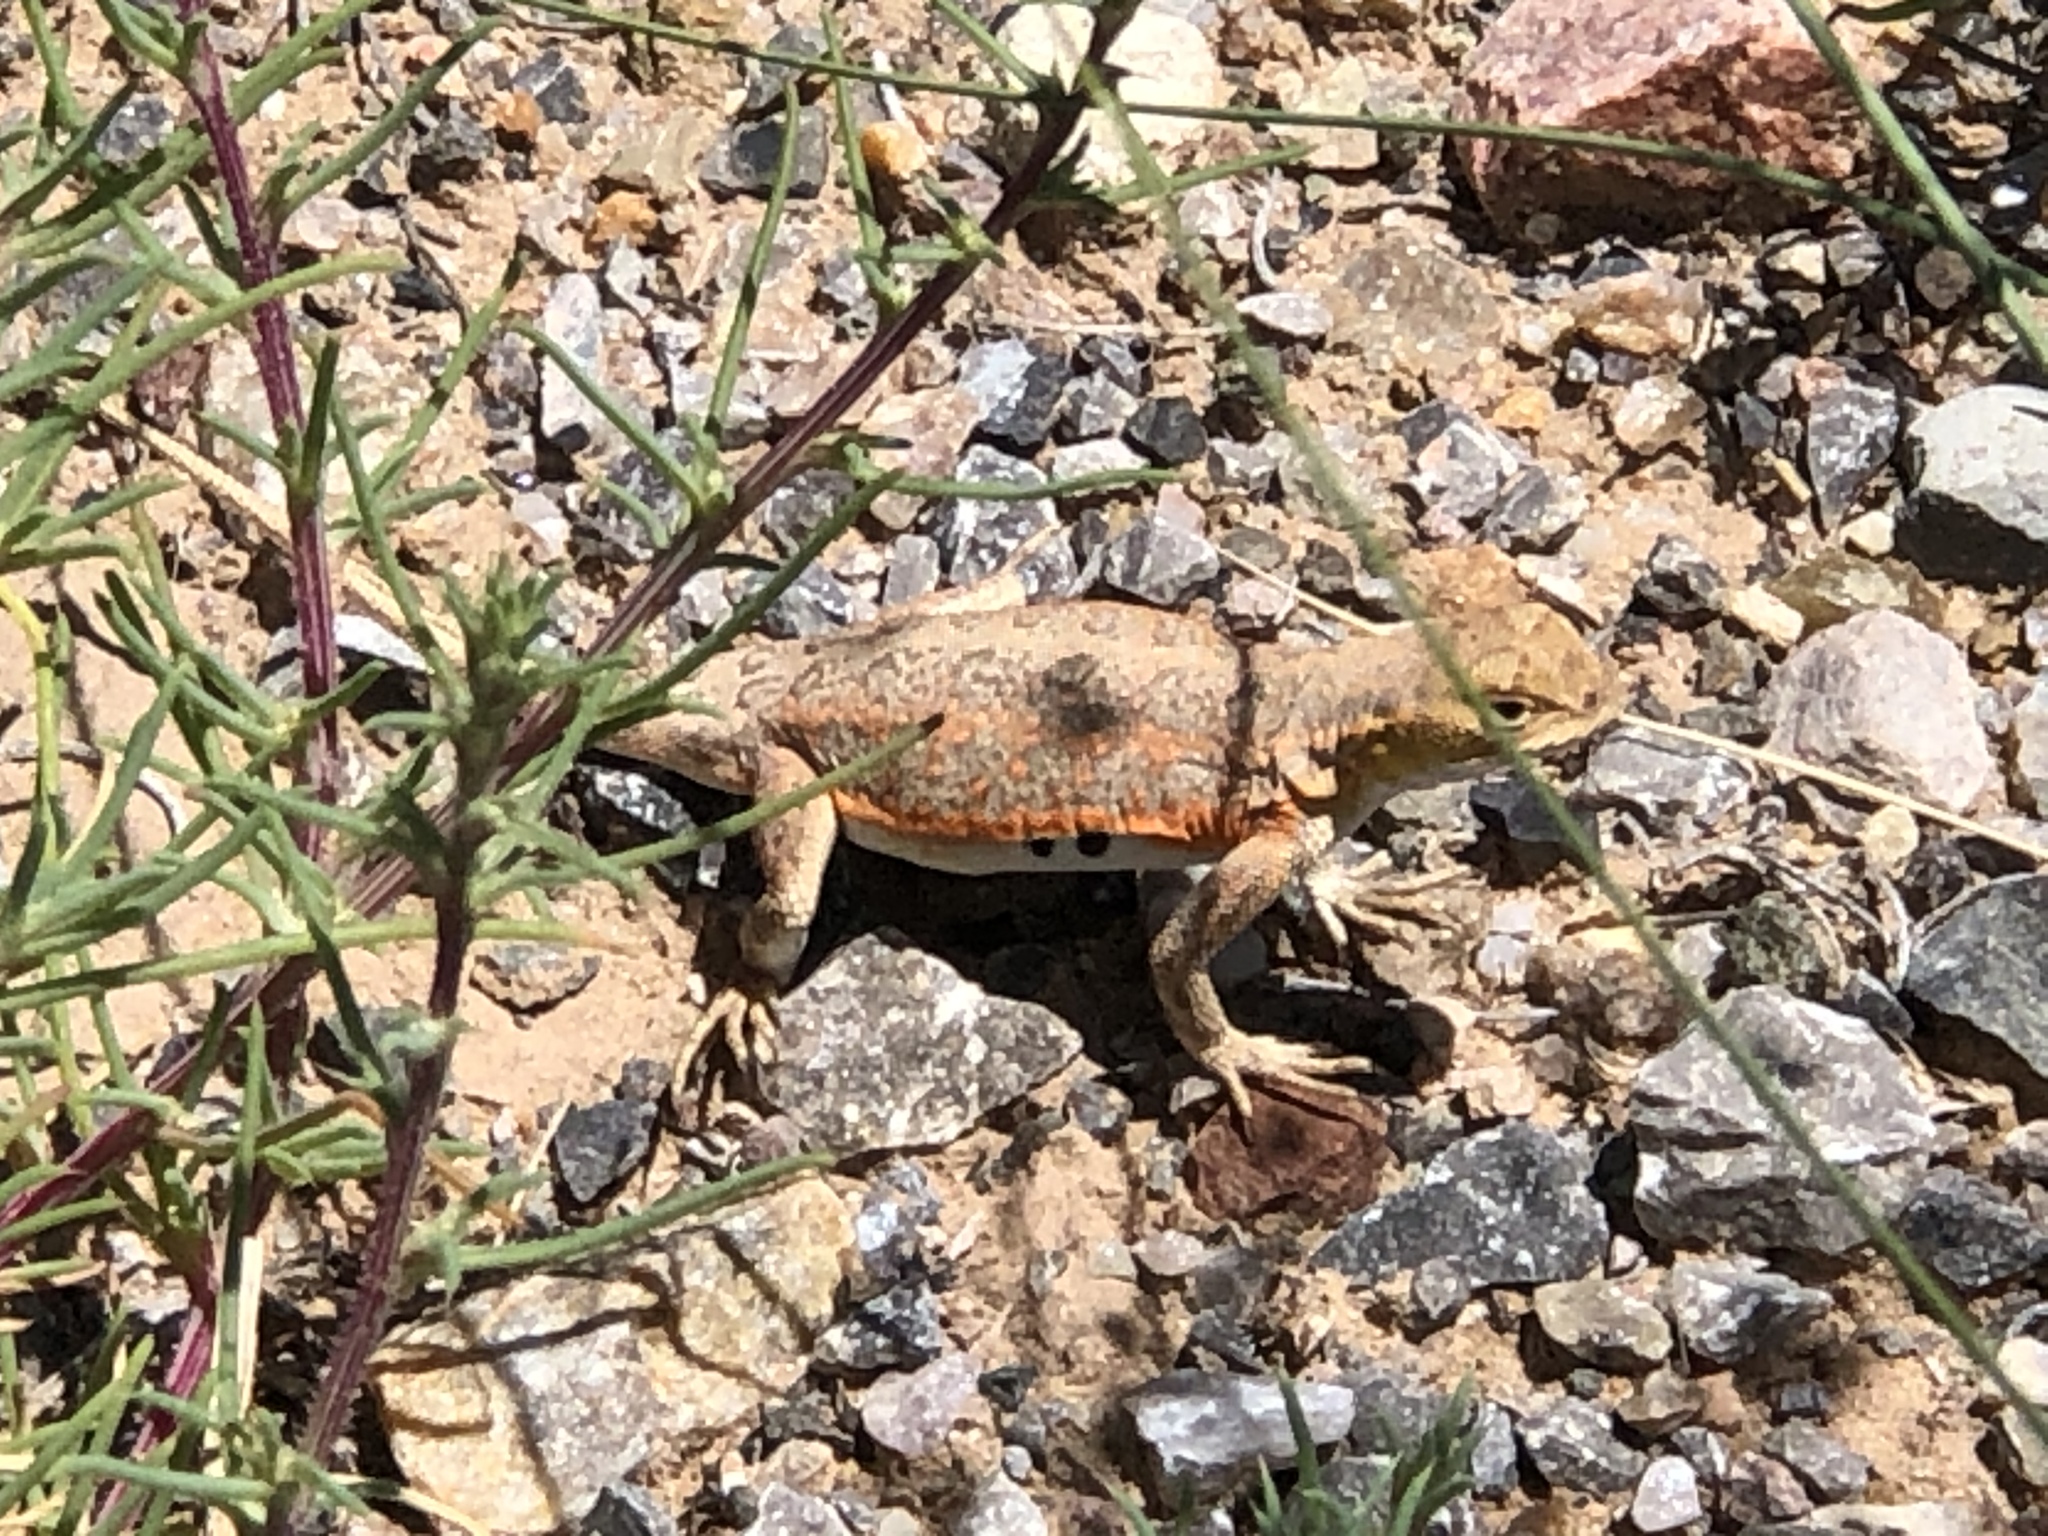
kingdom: Animalia
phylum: Chordata
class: Squamata
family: Phrynosomatidae
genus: Holbrookia
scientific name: Holbrookia maculata
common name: Lesser earless lizard
